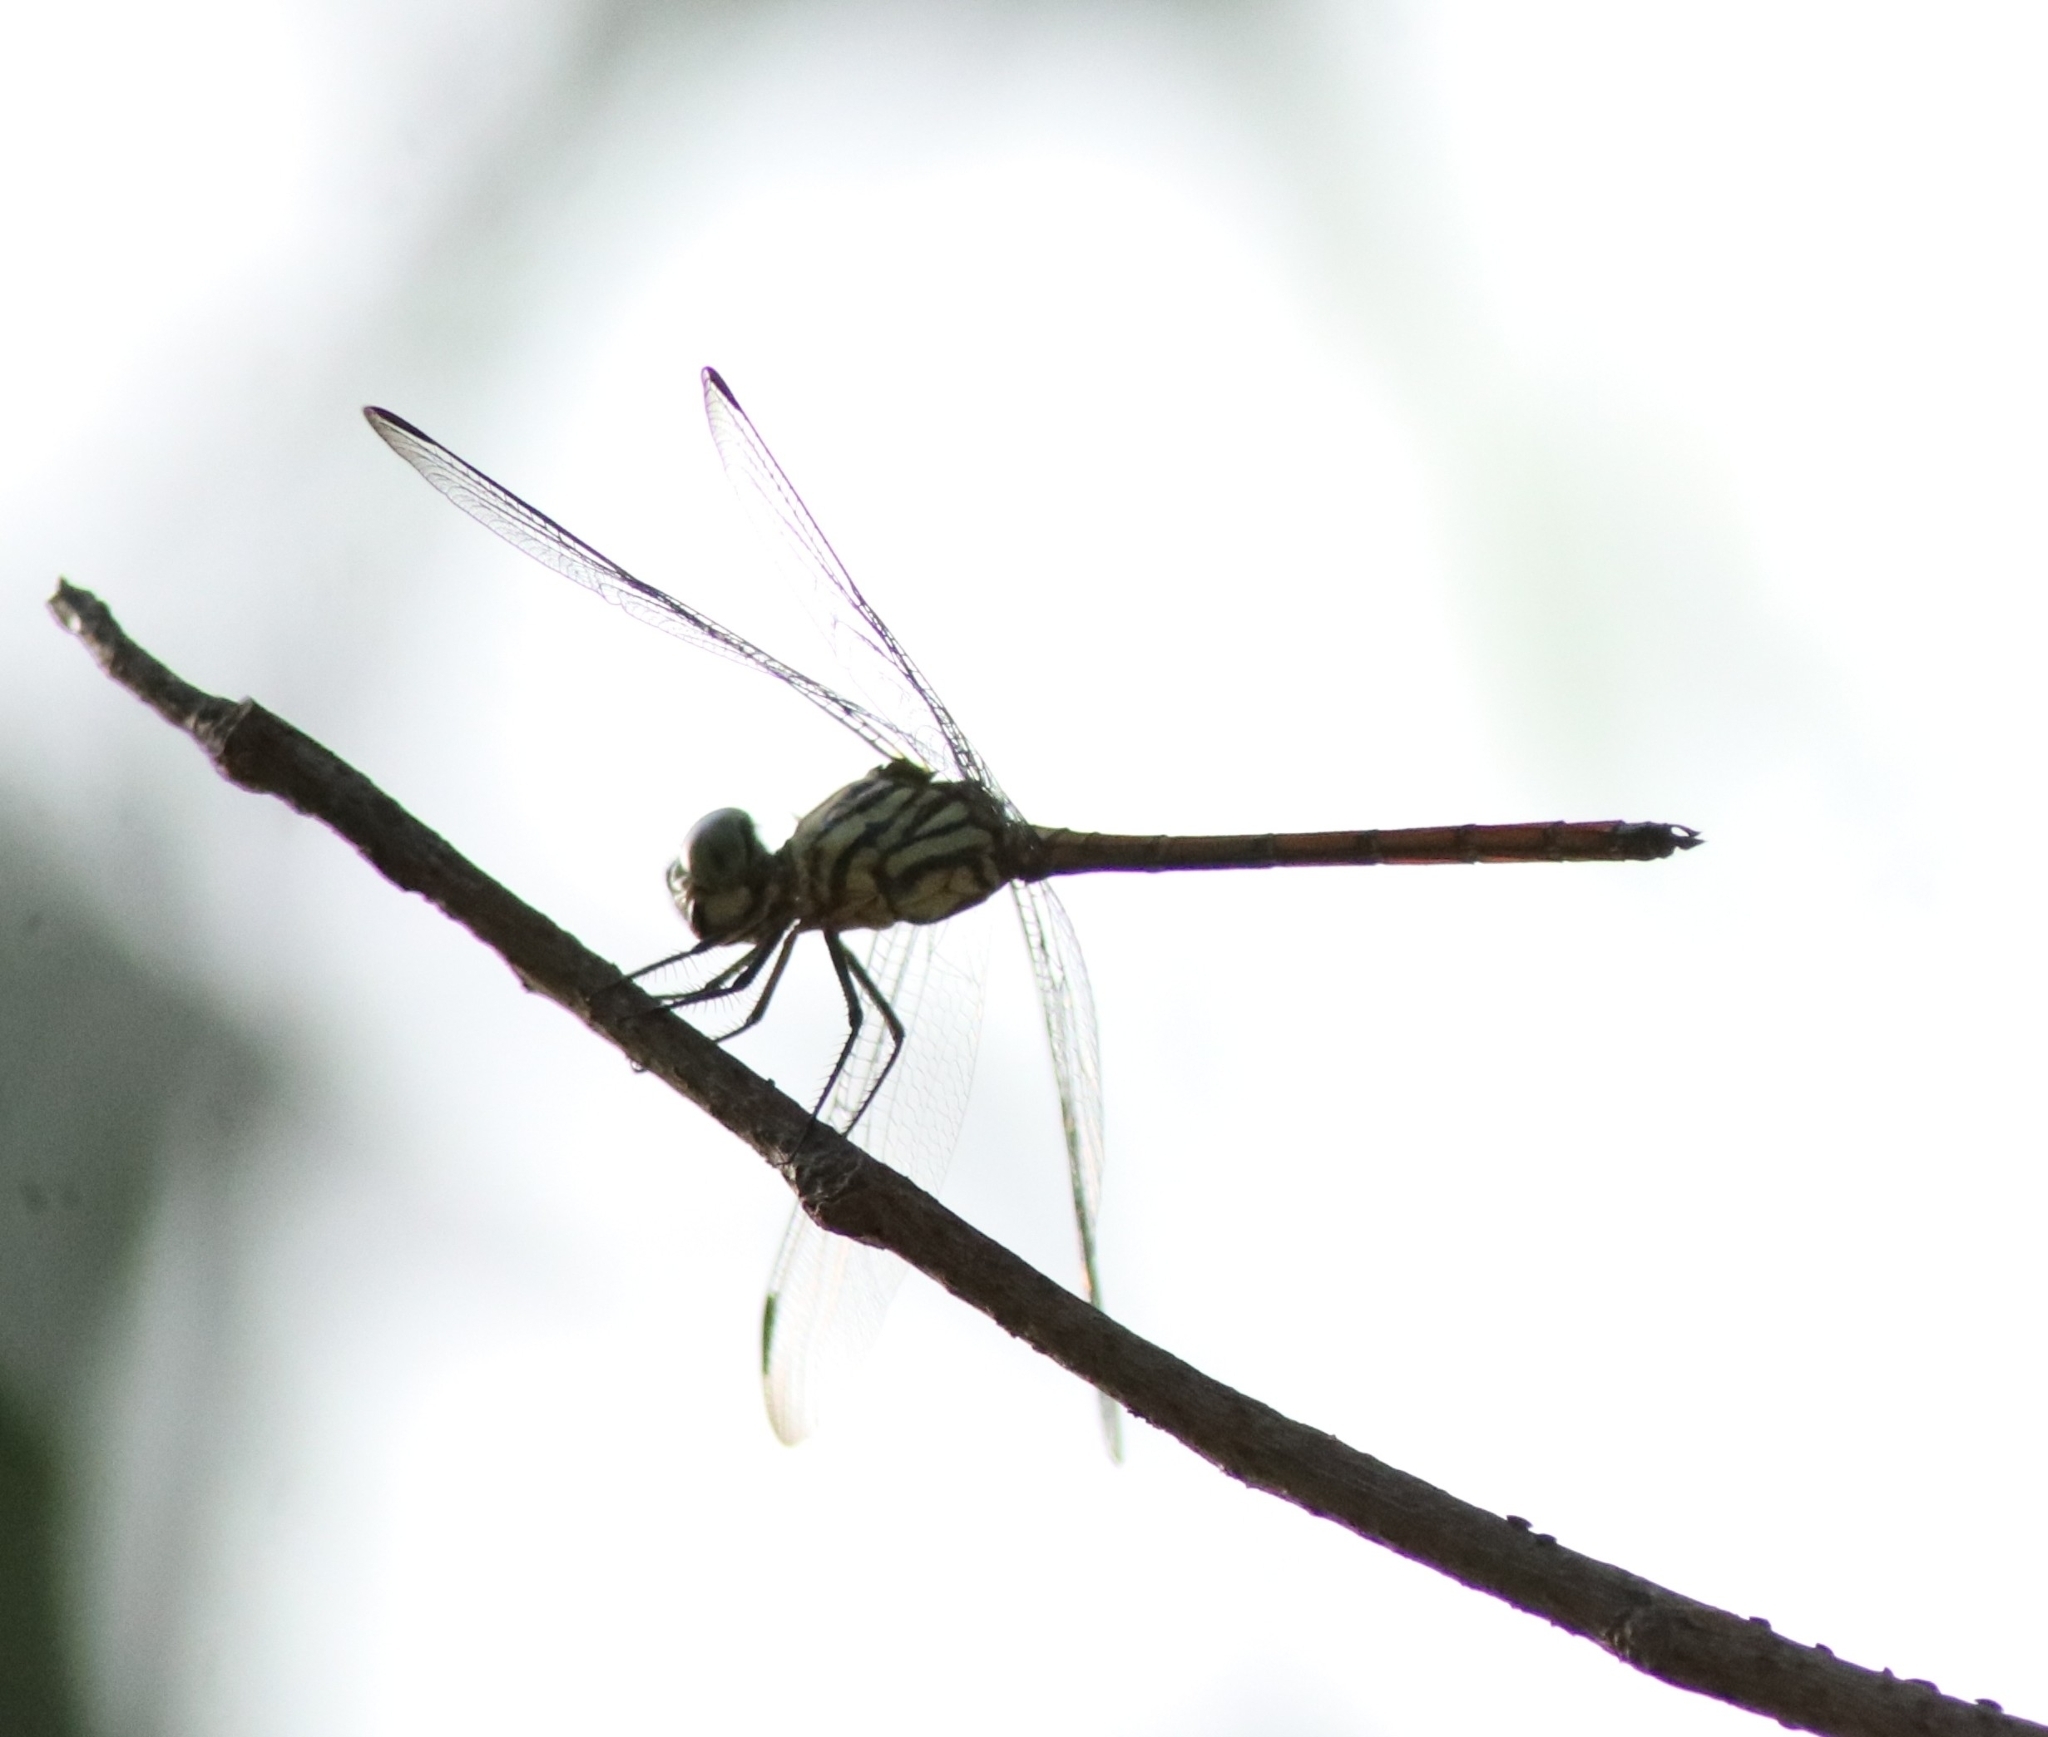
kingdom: Animalia
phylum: Arthropoda
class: Insecta
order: Odonata
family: Libellulidae
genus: Lathrecista
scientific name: Lathrecista asiatica
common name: Scarlet grenadier
